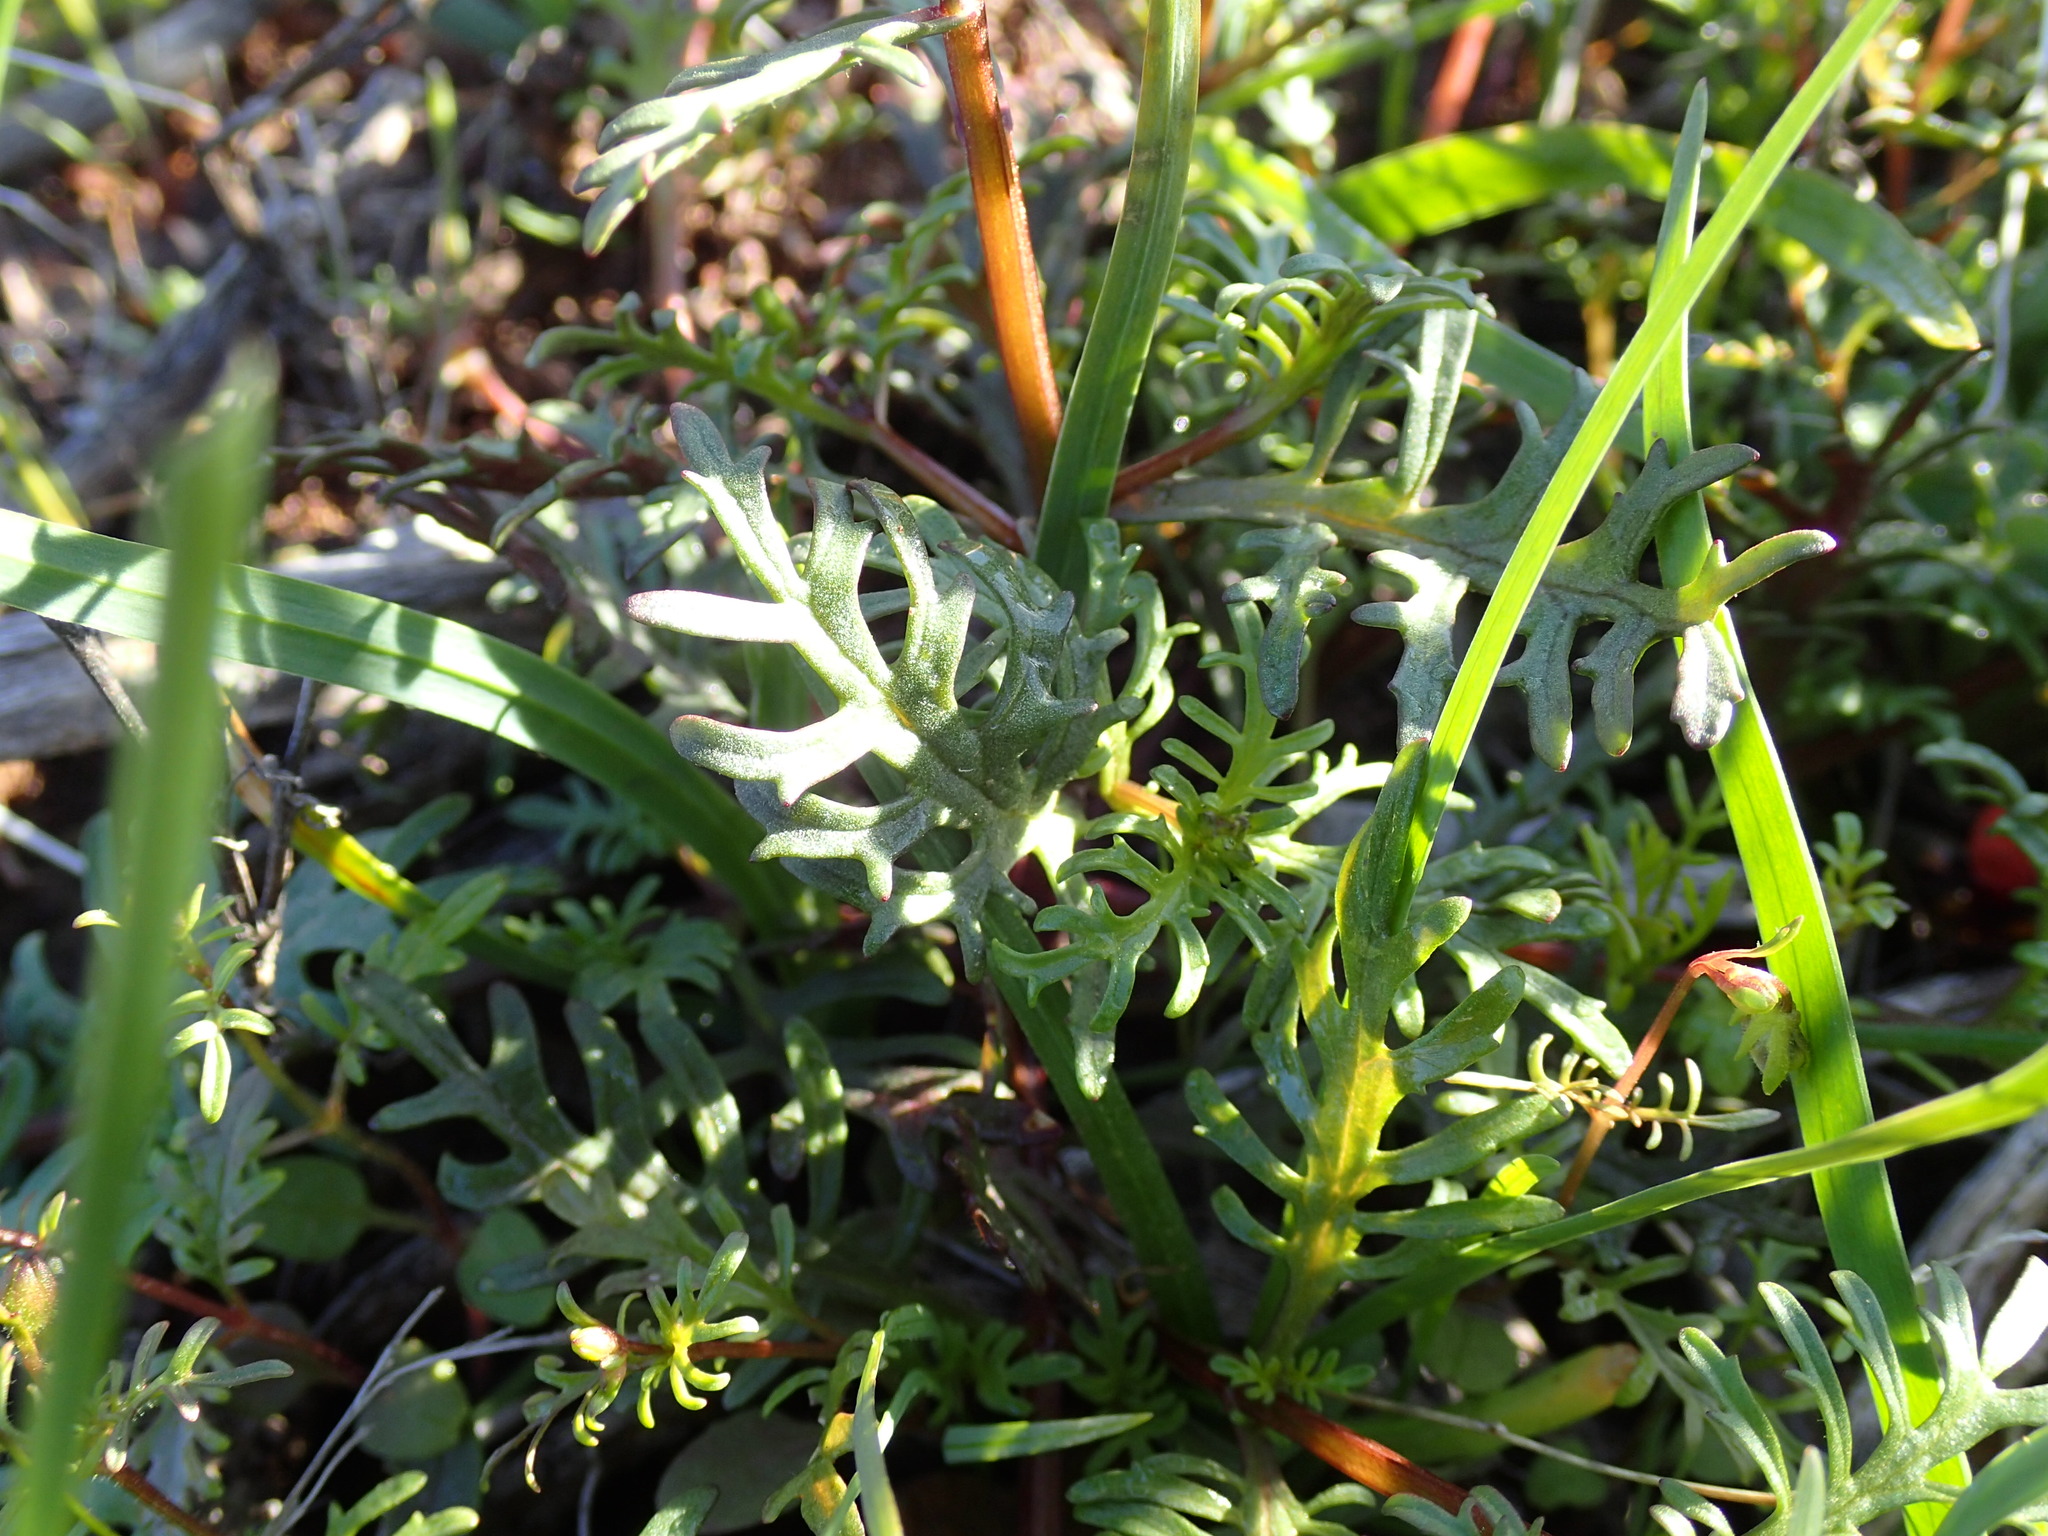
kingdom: Plantae
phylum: Tracheophyta
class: Magnoliopsida
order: Lamiales
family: Scrophulariaceae
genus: Alonsoa
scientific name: Alonsoa unilabiata
